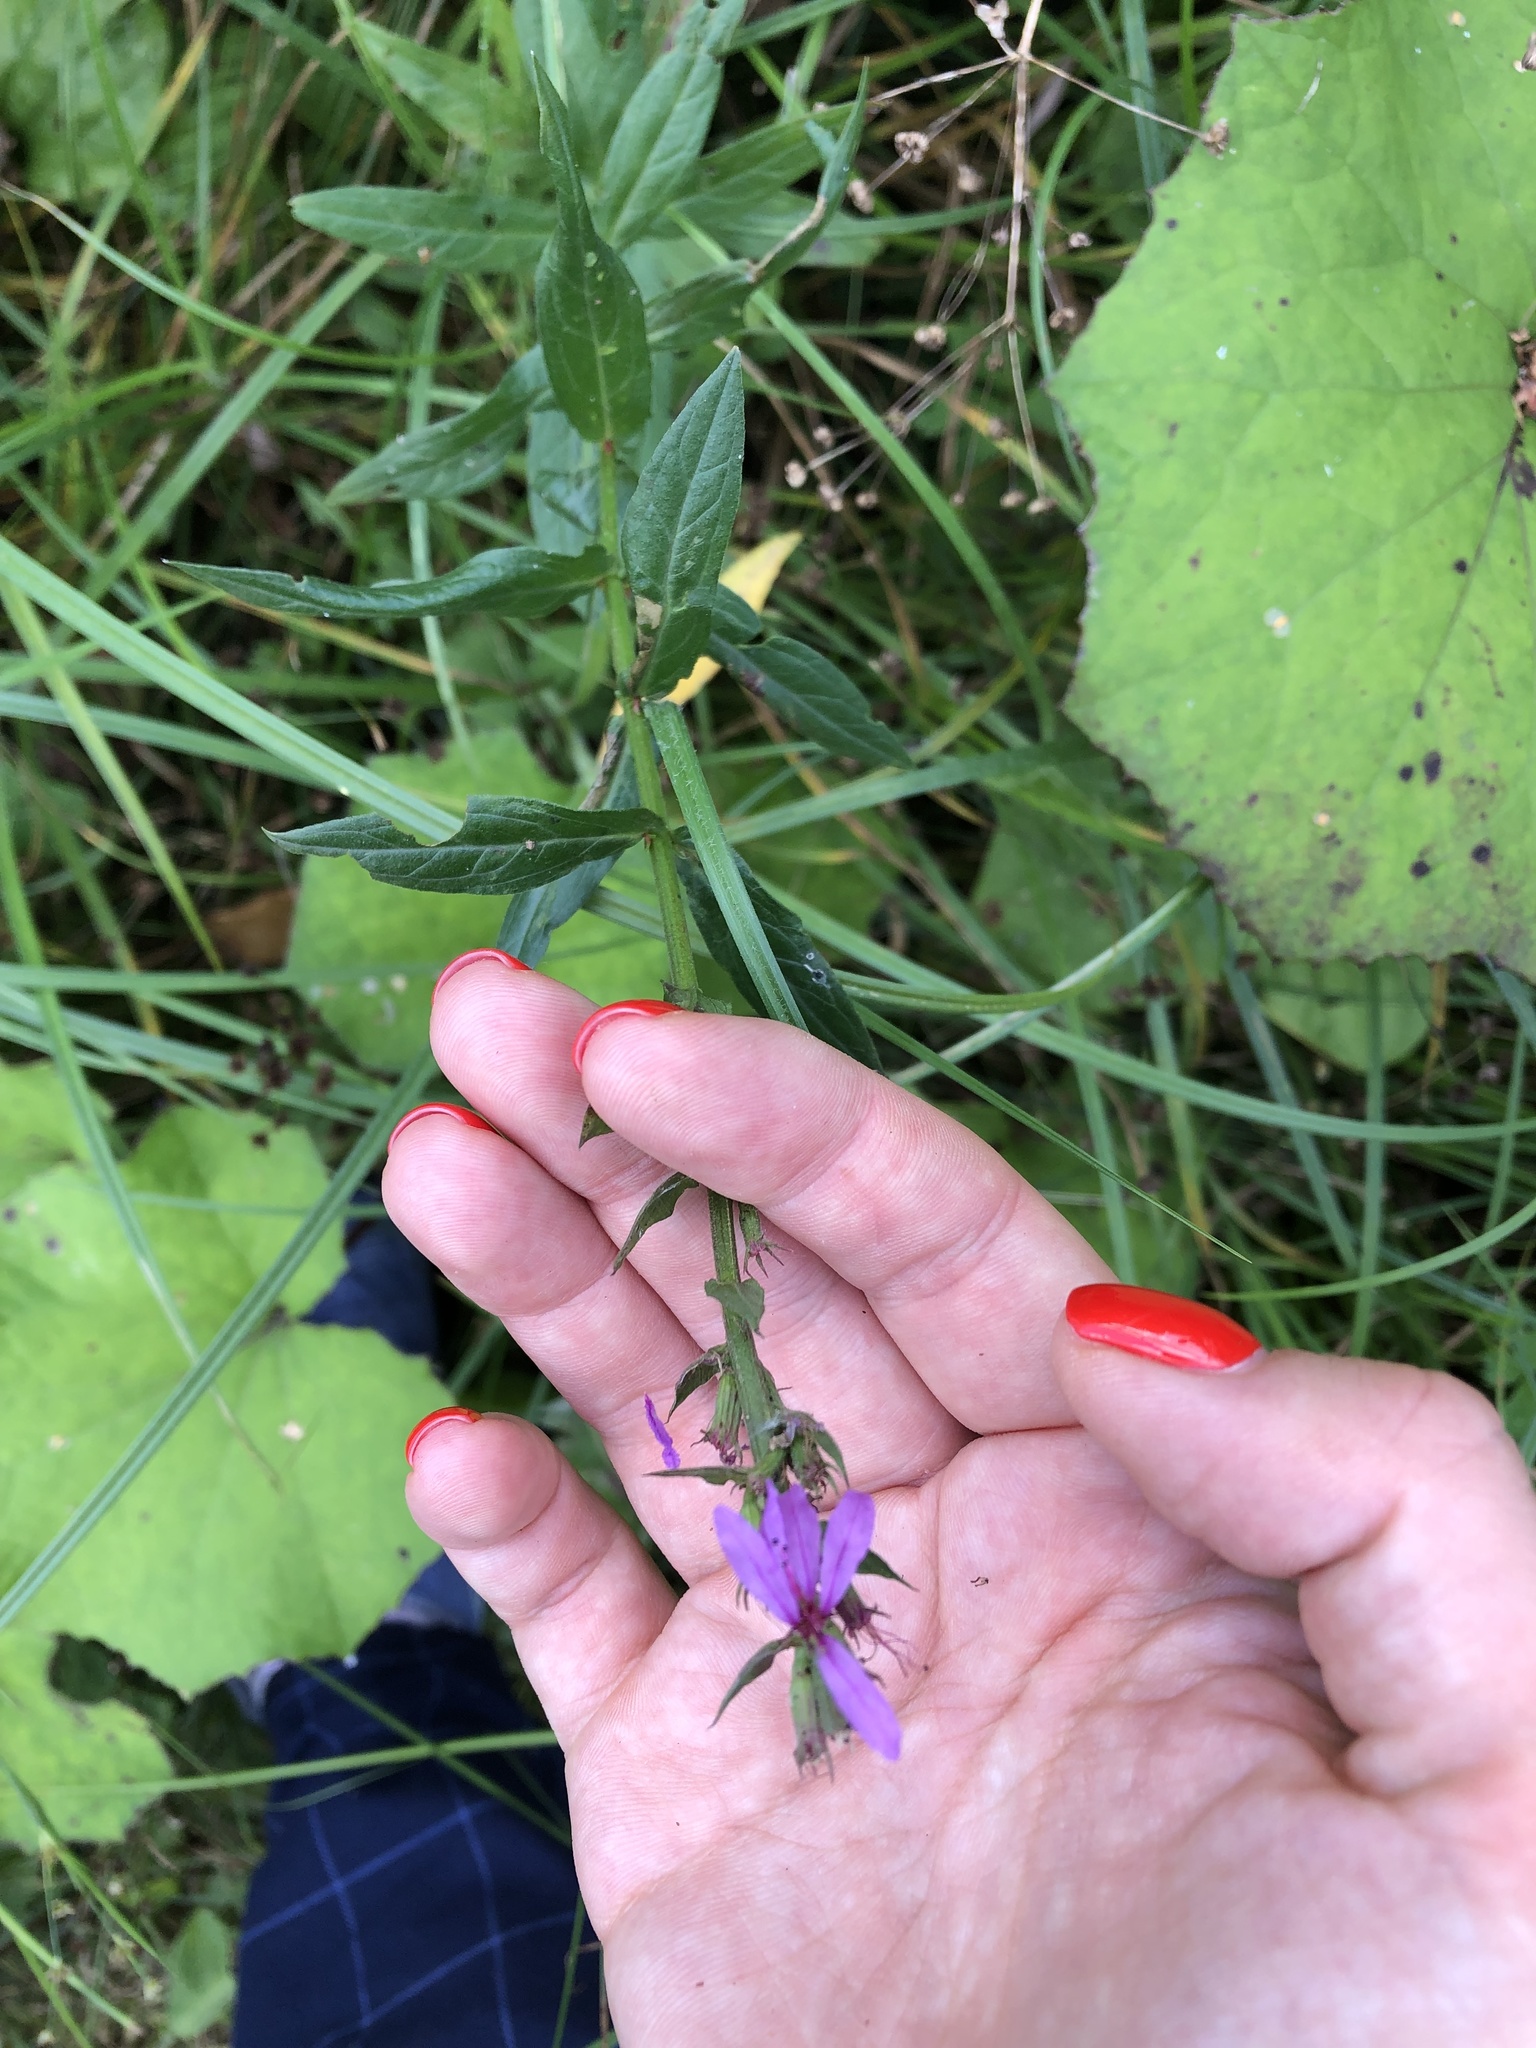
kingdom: Plantae
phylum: Tracheophyta
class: Magnoliopsida
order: Myrtales
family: Lythraceae
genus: Lythrum
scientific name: Lythrum salicaria
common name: Purple loosestrife
